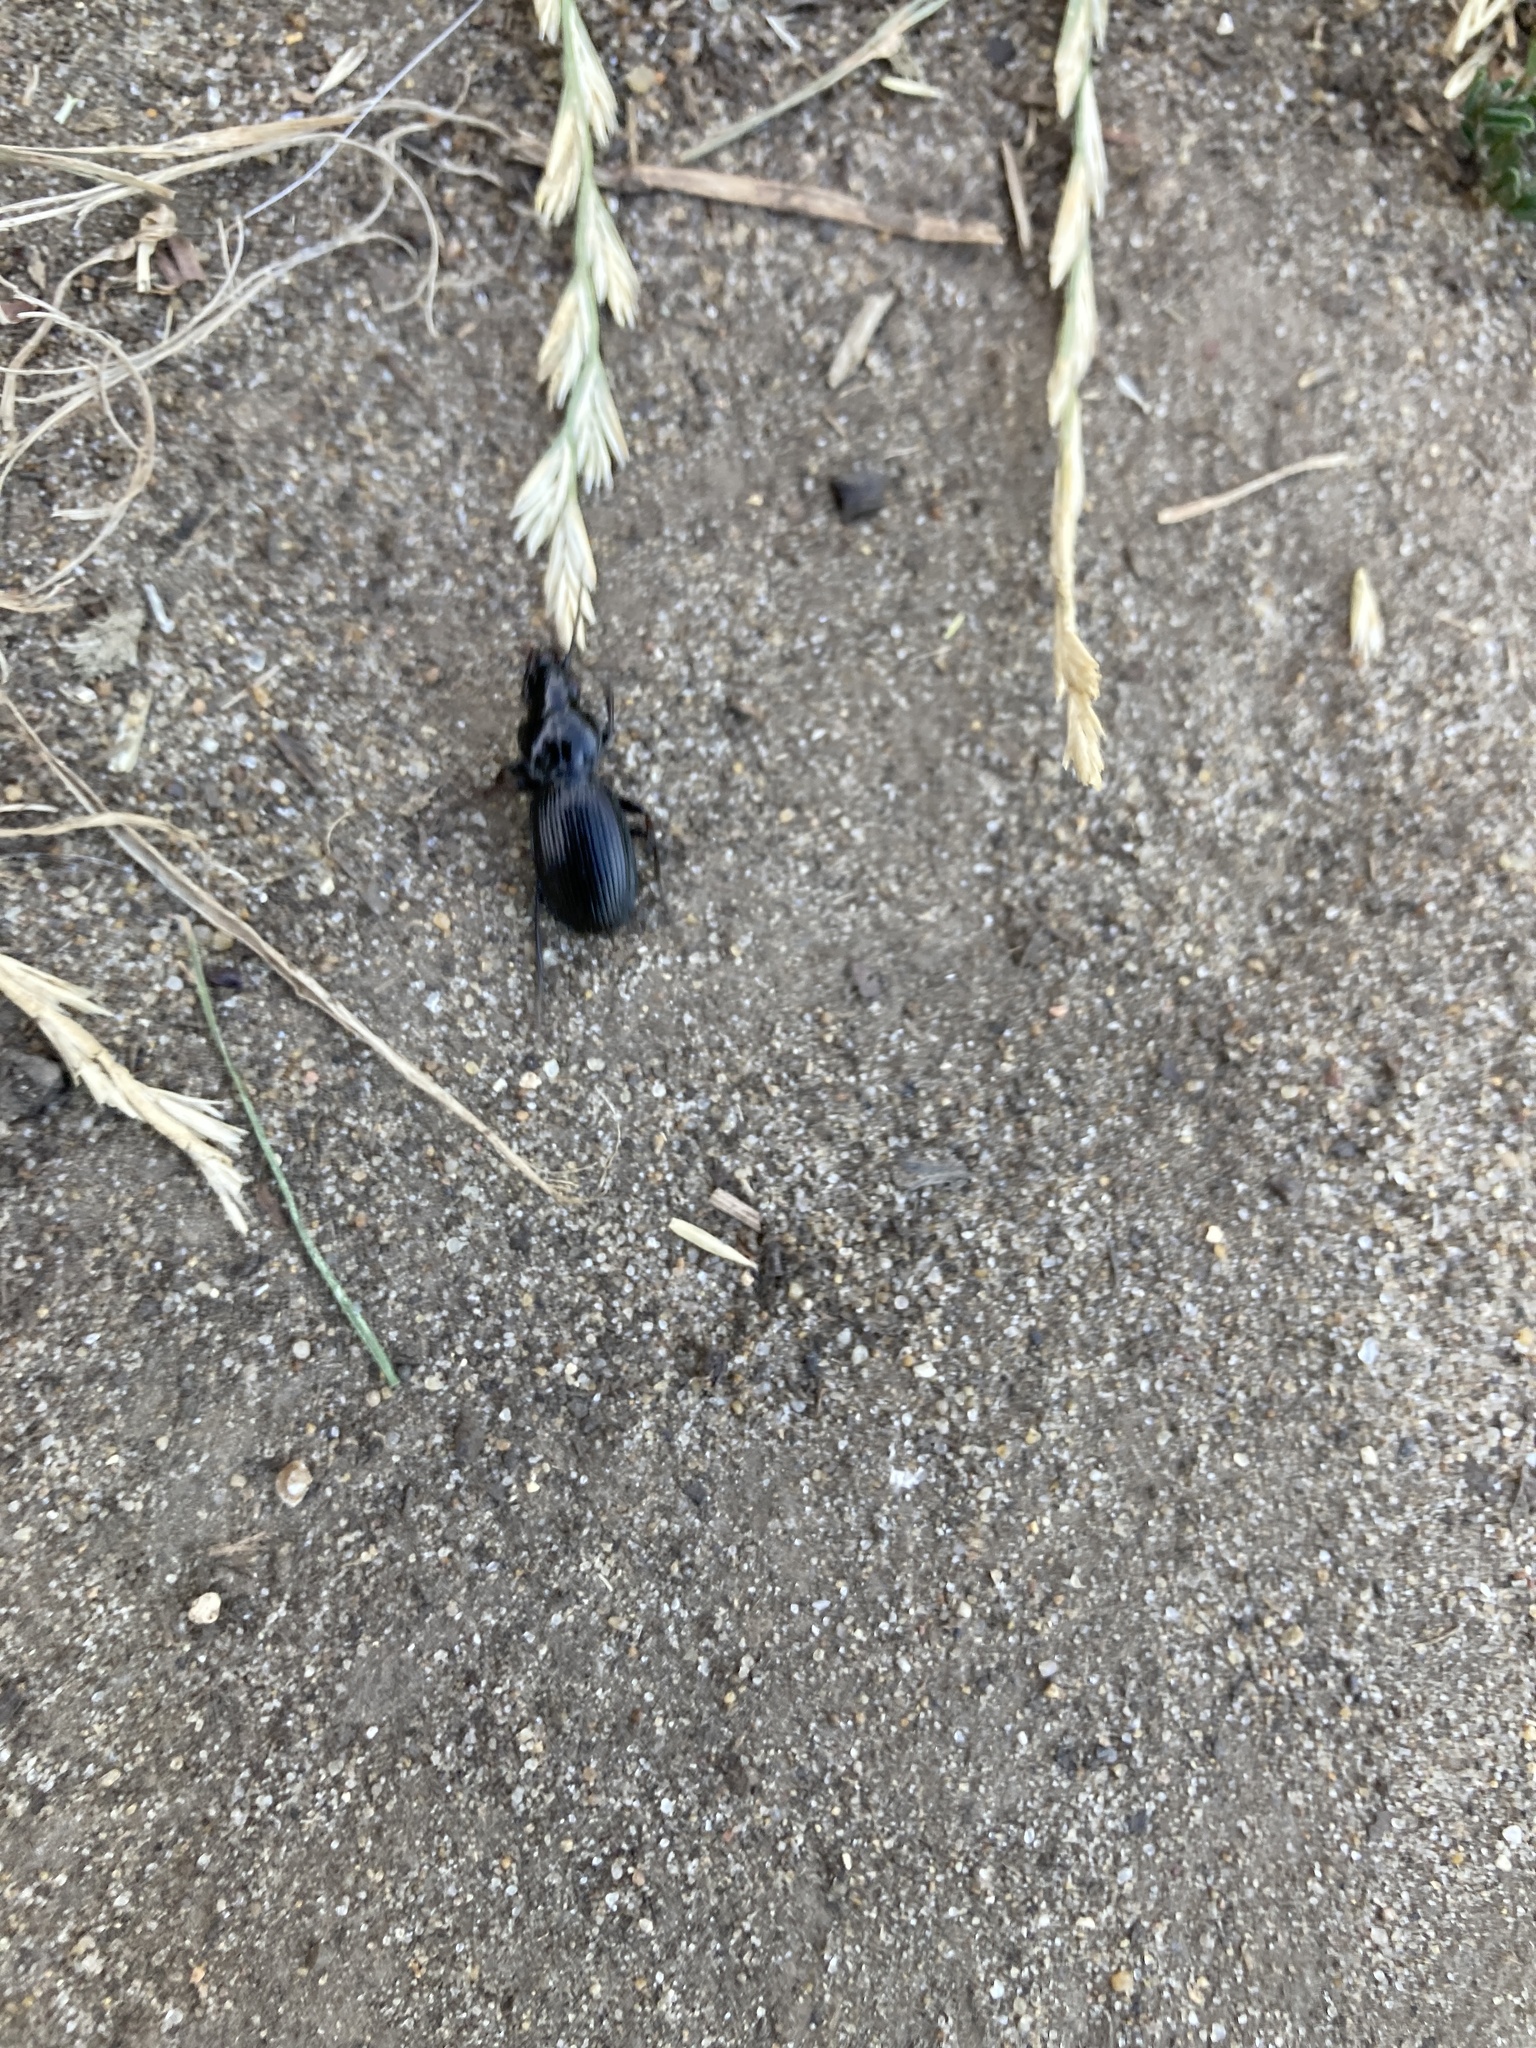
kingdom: Animalia
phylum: Arthropoda
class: Insecta
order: Coleoptera
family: Carabidae
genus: Pterostichus
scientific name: Pterostichus madidus
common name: Black clock
